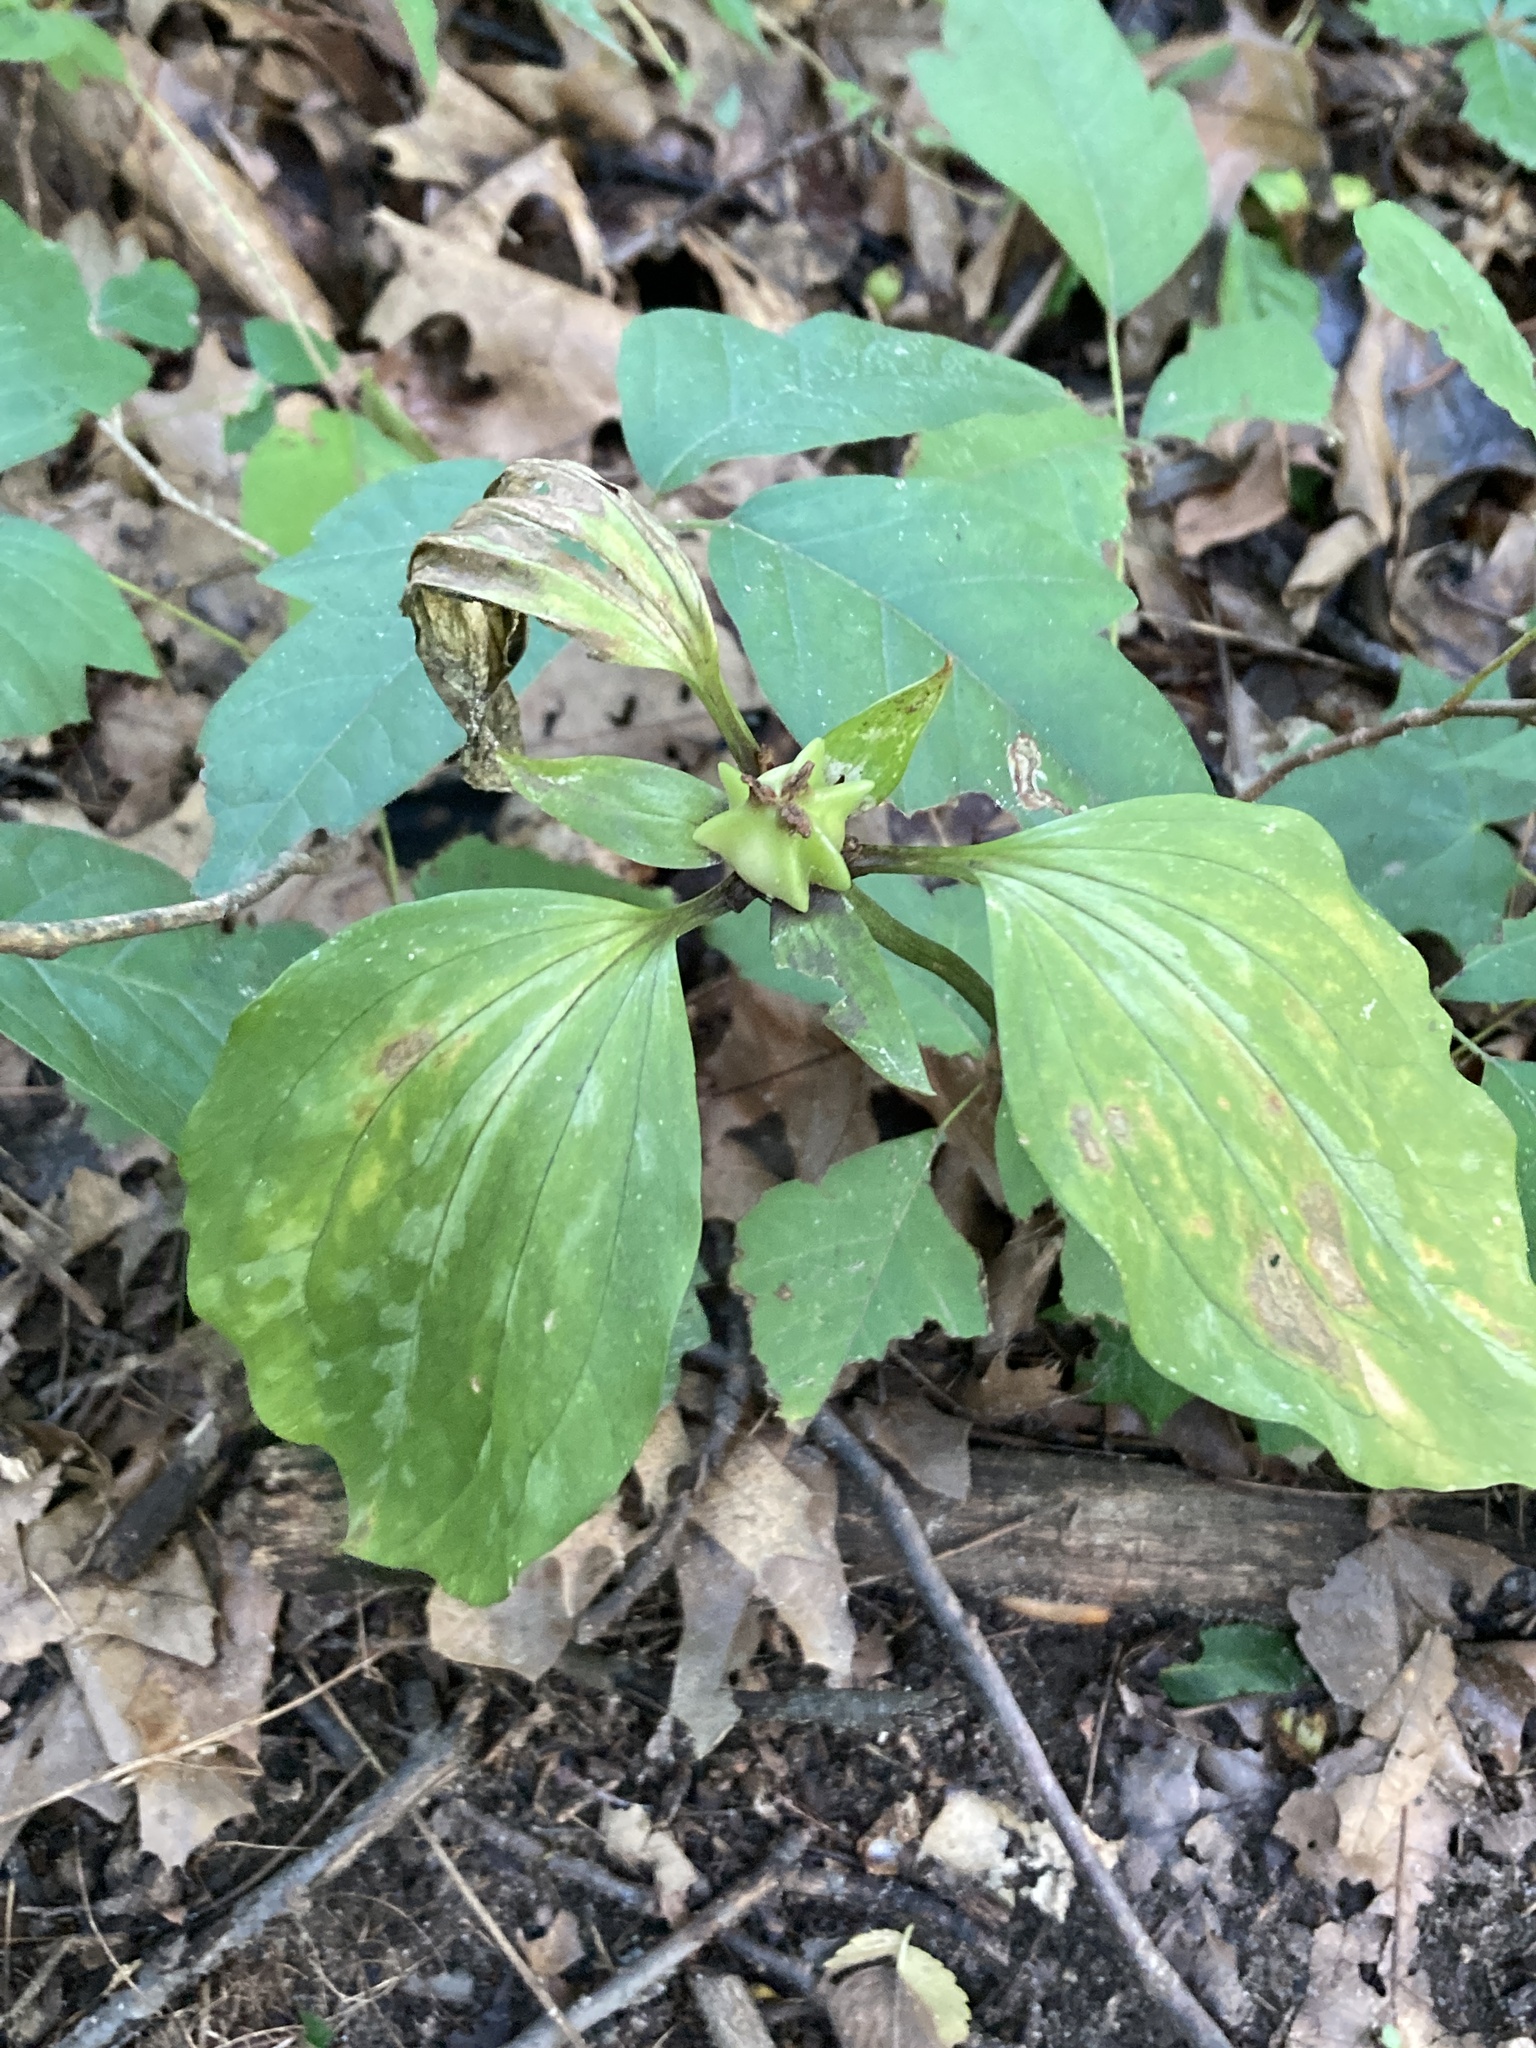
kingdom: Plantae
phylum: Tracheophyta
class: Liliopsida
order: Liliales
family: Melanthiaceae
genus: Trillium
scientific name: Trillium recurvatum
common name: Bloody butcher
